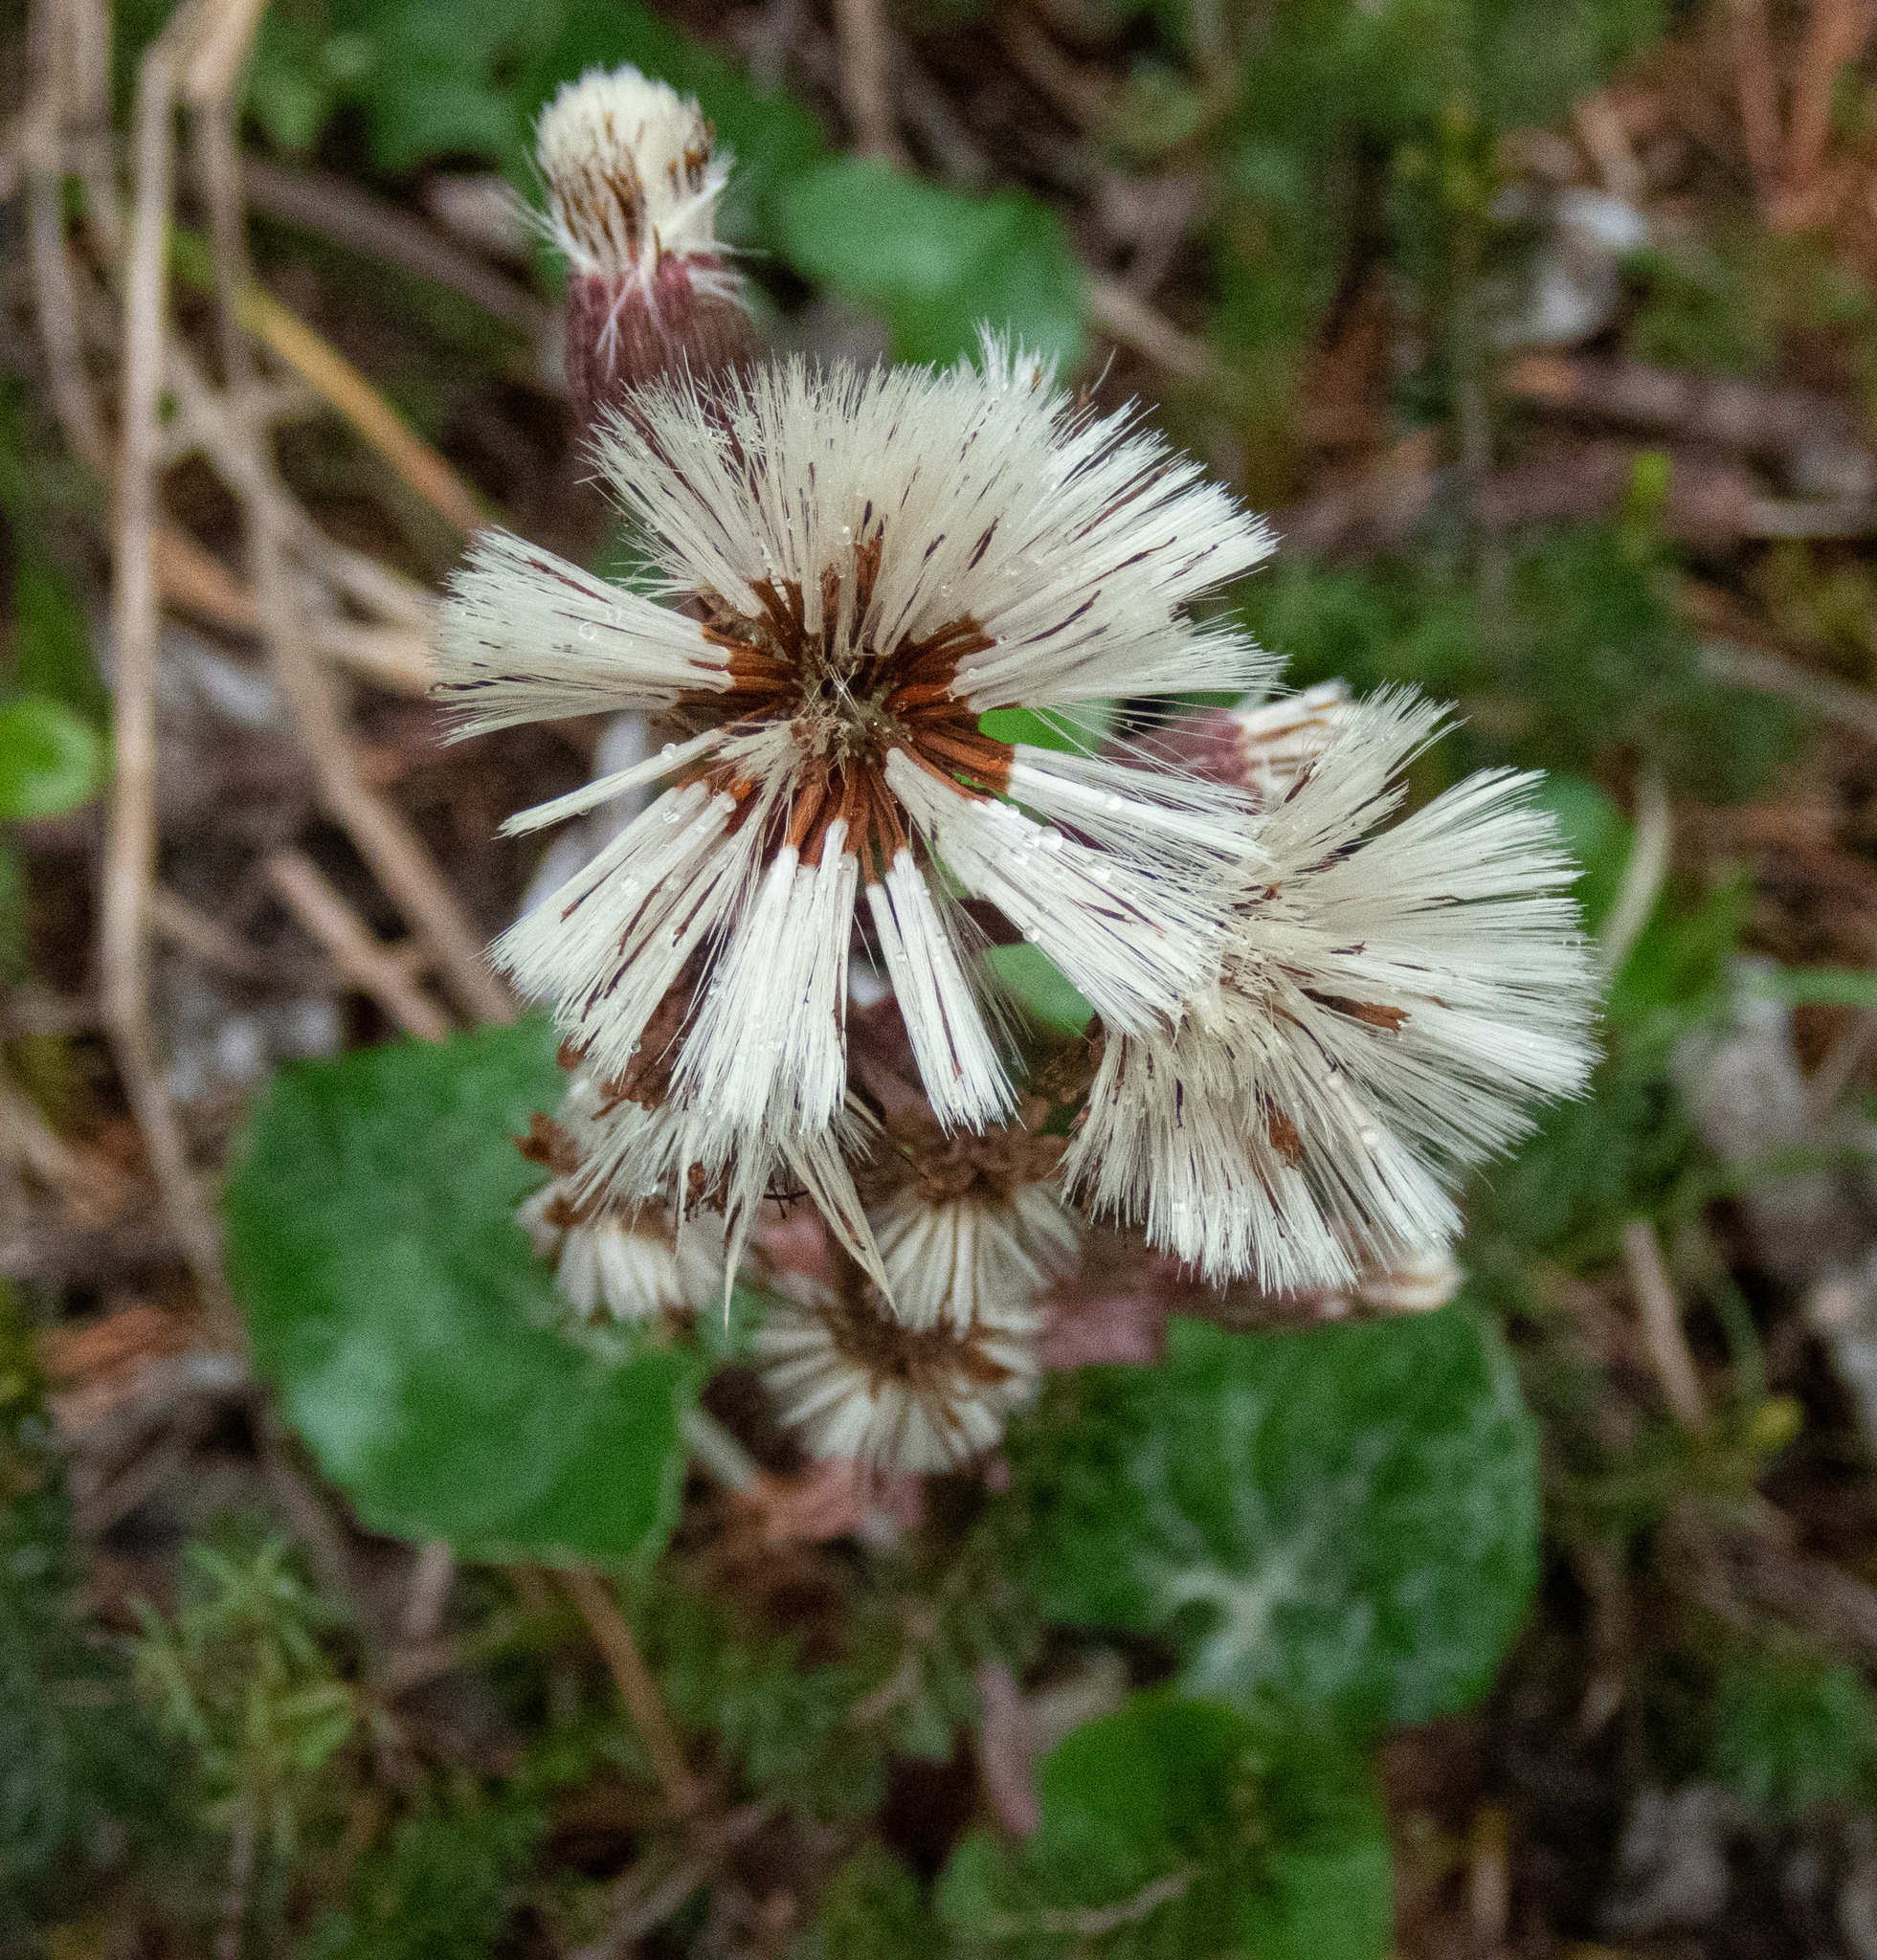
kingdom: Plantae
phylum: Tracheophyta
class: Magnoliopsida
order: Asterales
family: Asteraceae
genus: Petasites
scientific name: Petasites paradoxus
